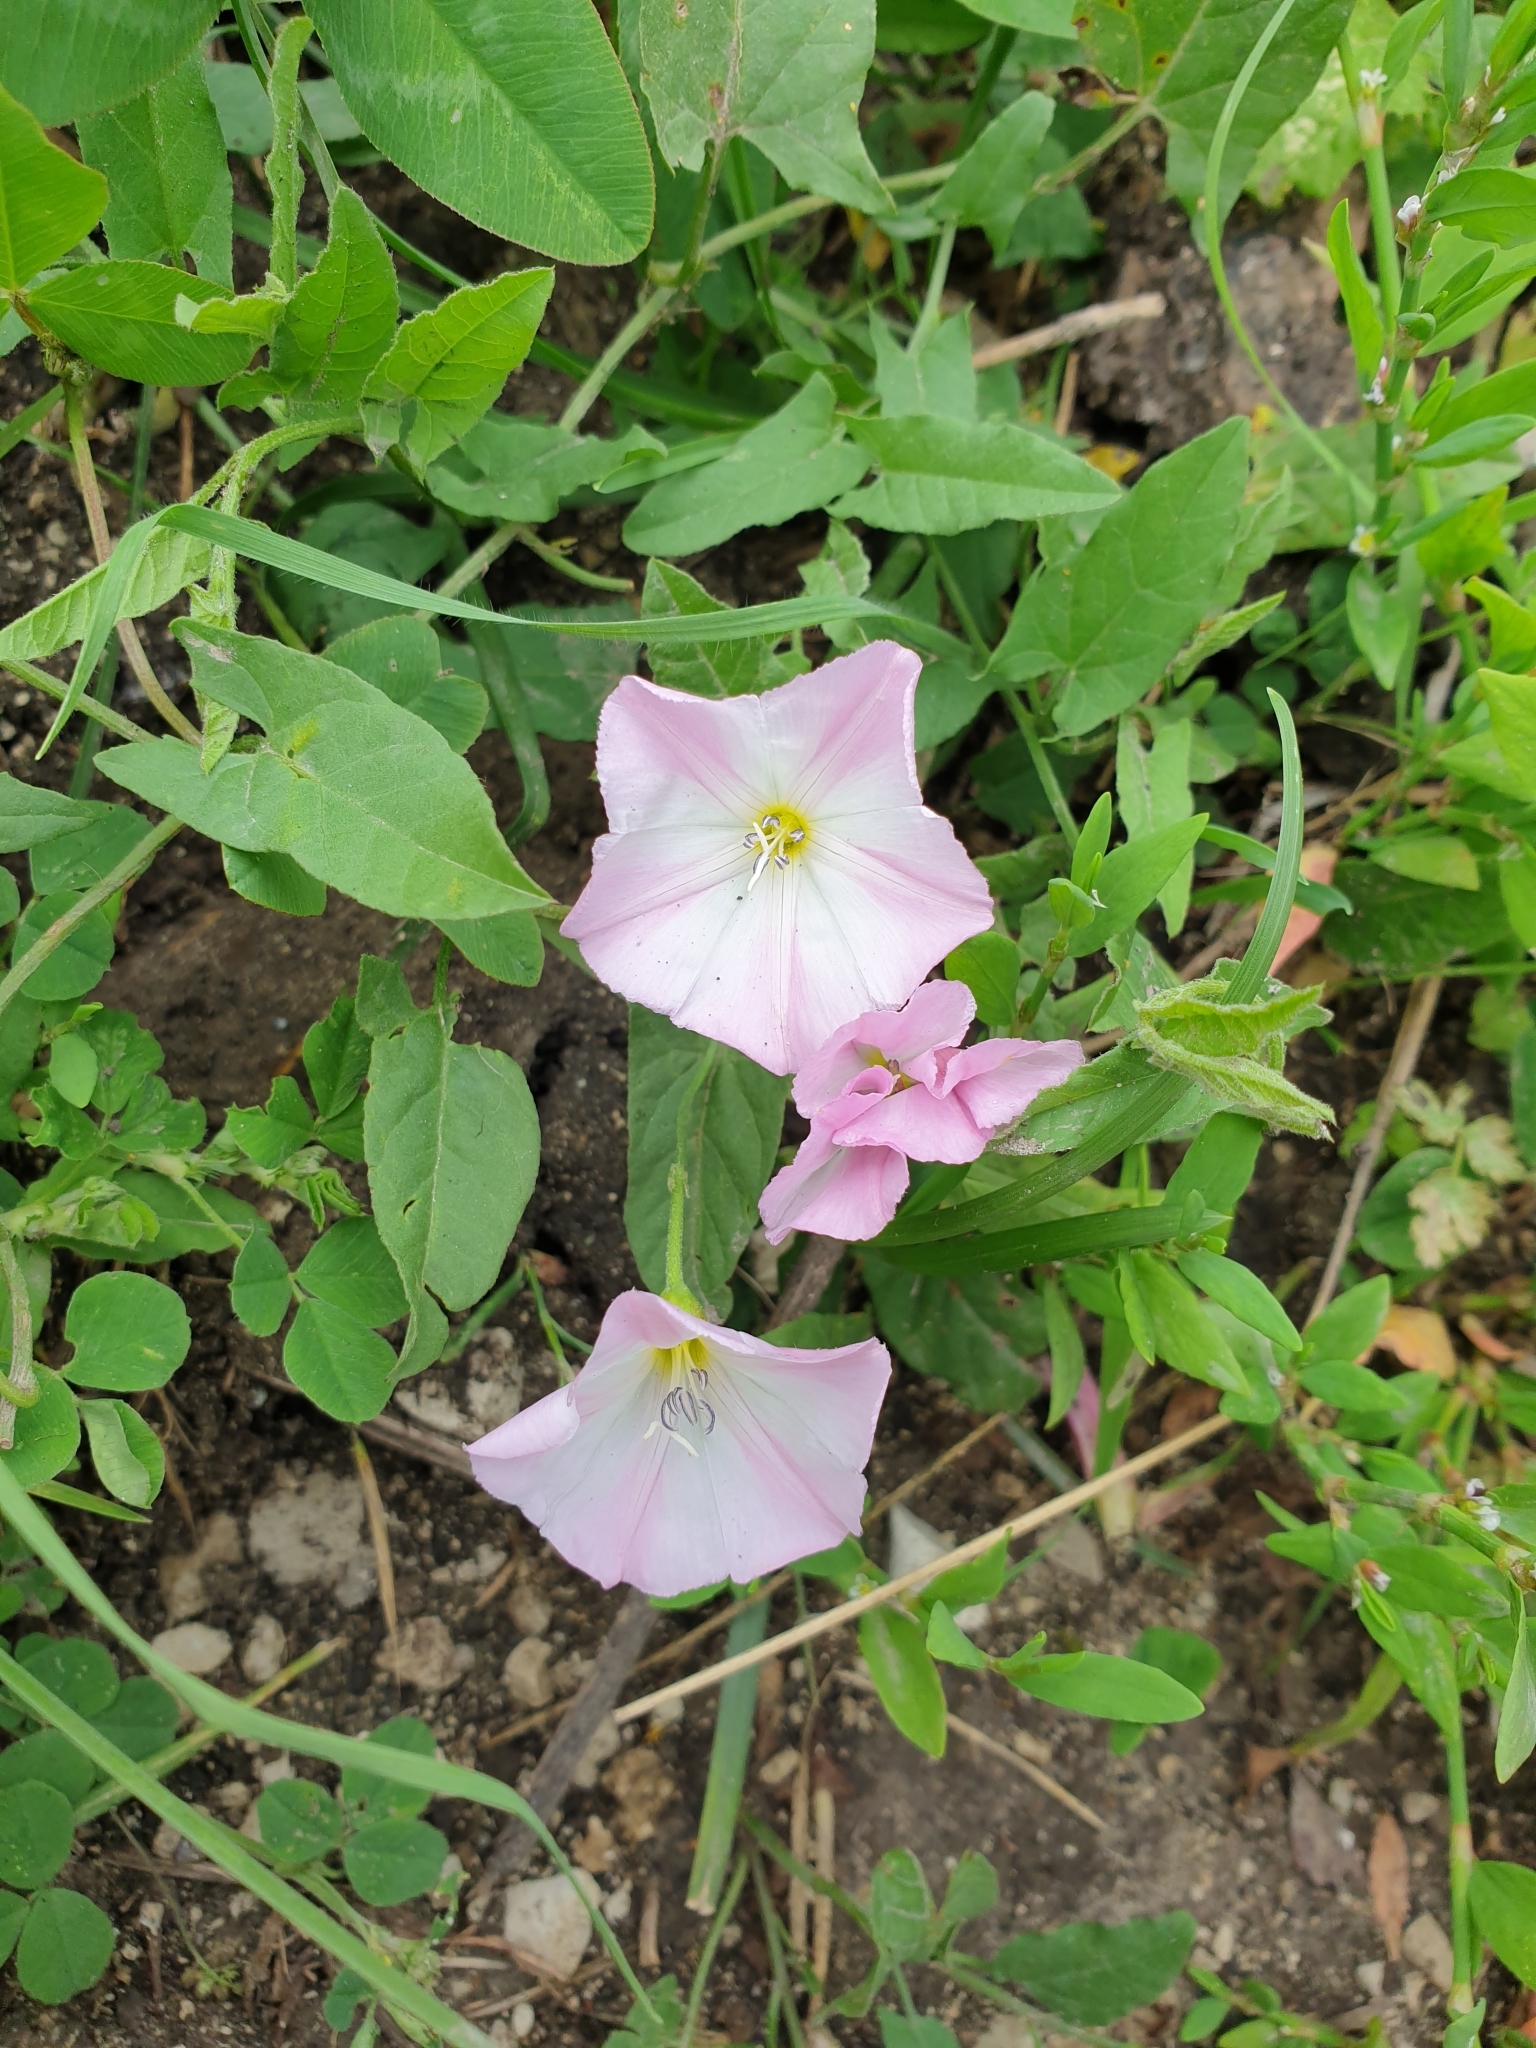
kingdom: Plantae
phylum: Tracheophyta
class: Magnoliopsida
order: Solanales
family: Convolvulaceae
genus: Convolvulus
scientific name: Convolvulus arvensis
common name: Field bindweed
